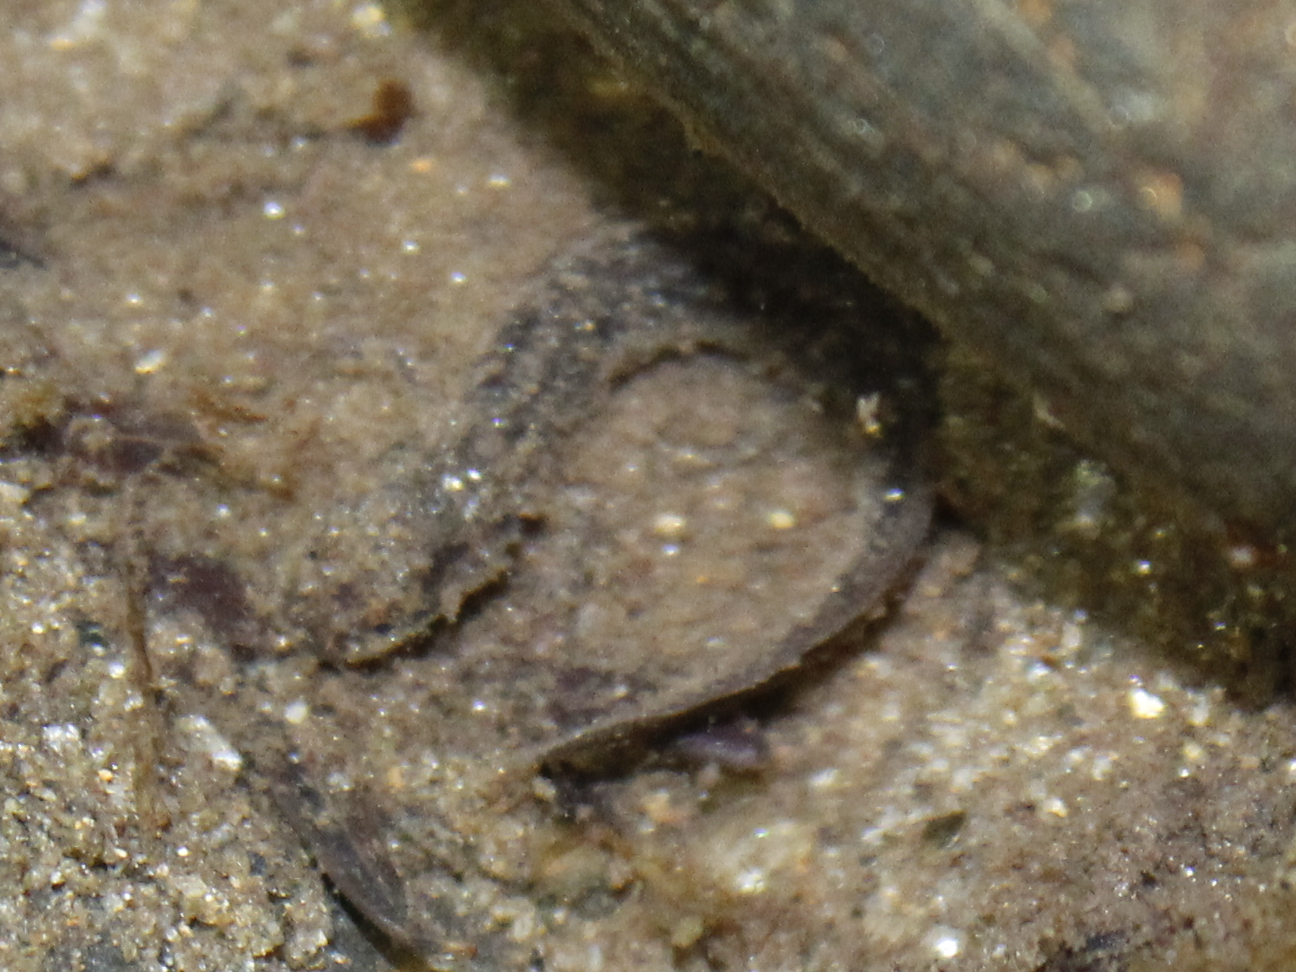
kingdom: Animalia
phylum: Chordata
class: Amphibia
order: Caudata
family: Plethodontidae
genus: Eurycea
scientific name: Eurycea bislineata
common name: Northern two-lined salamander
